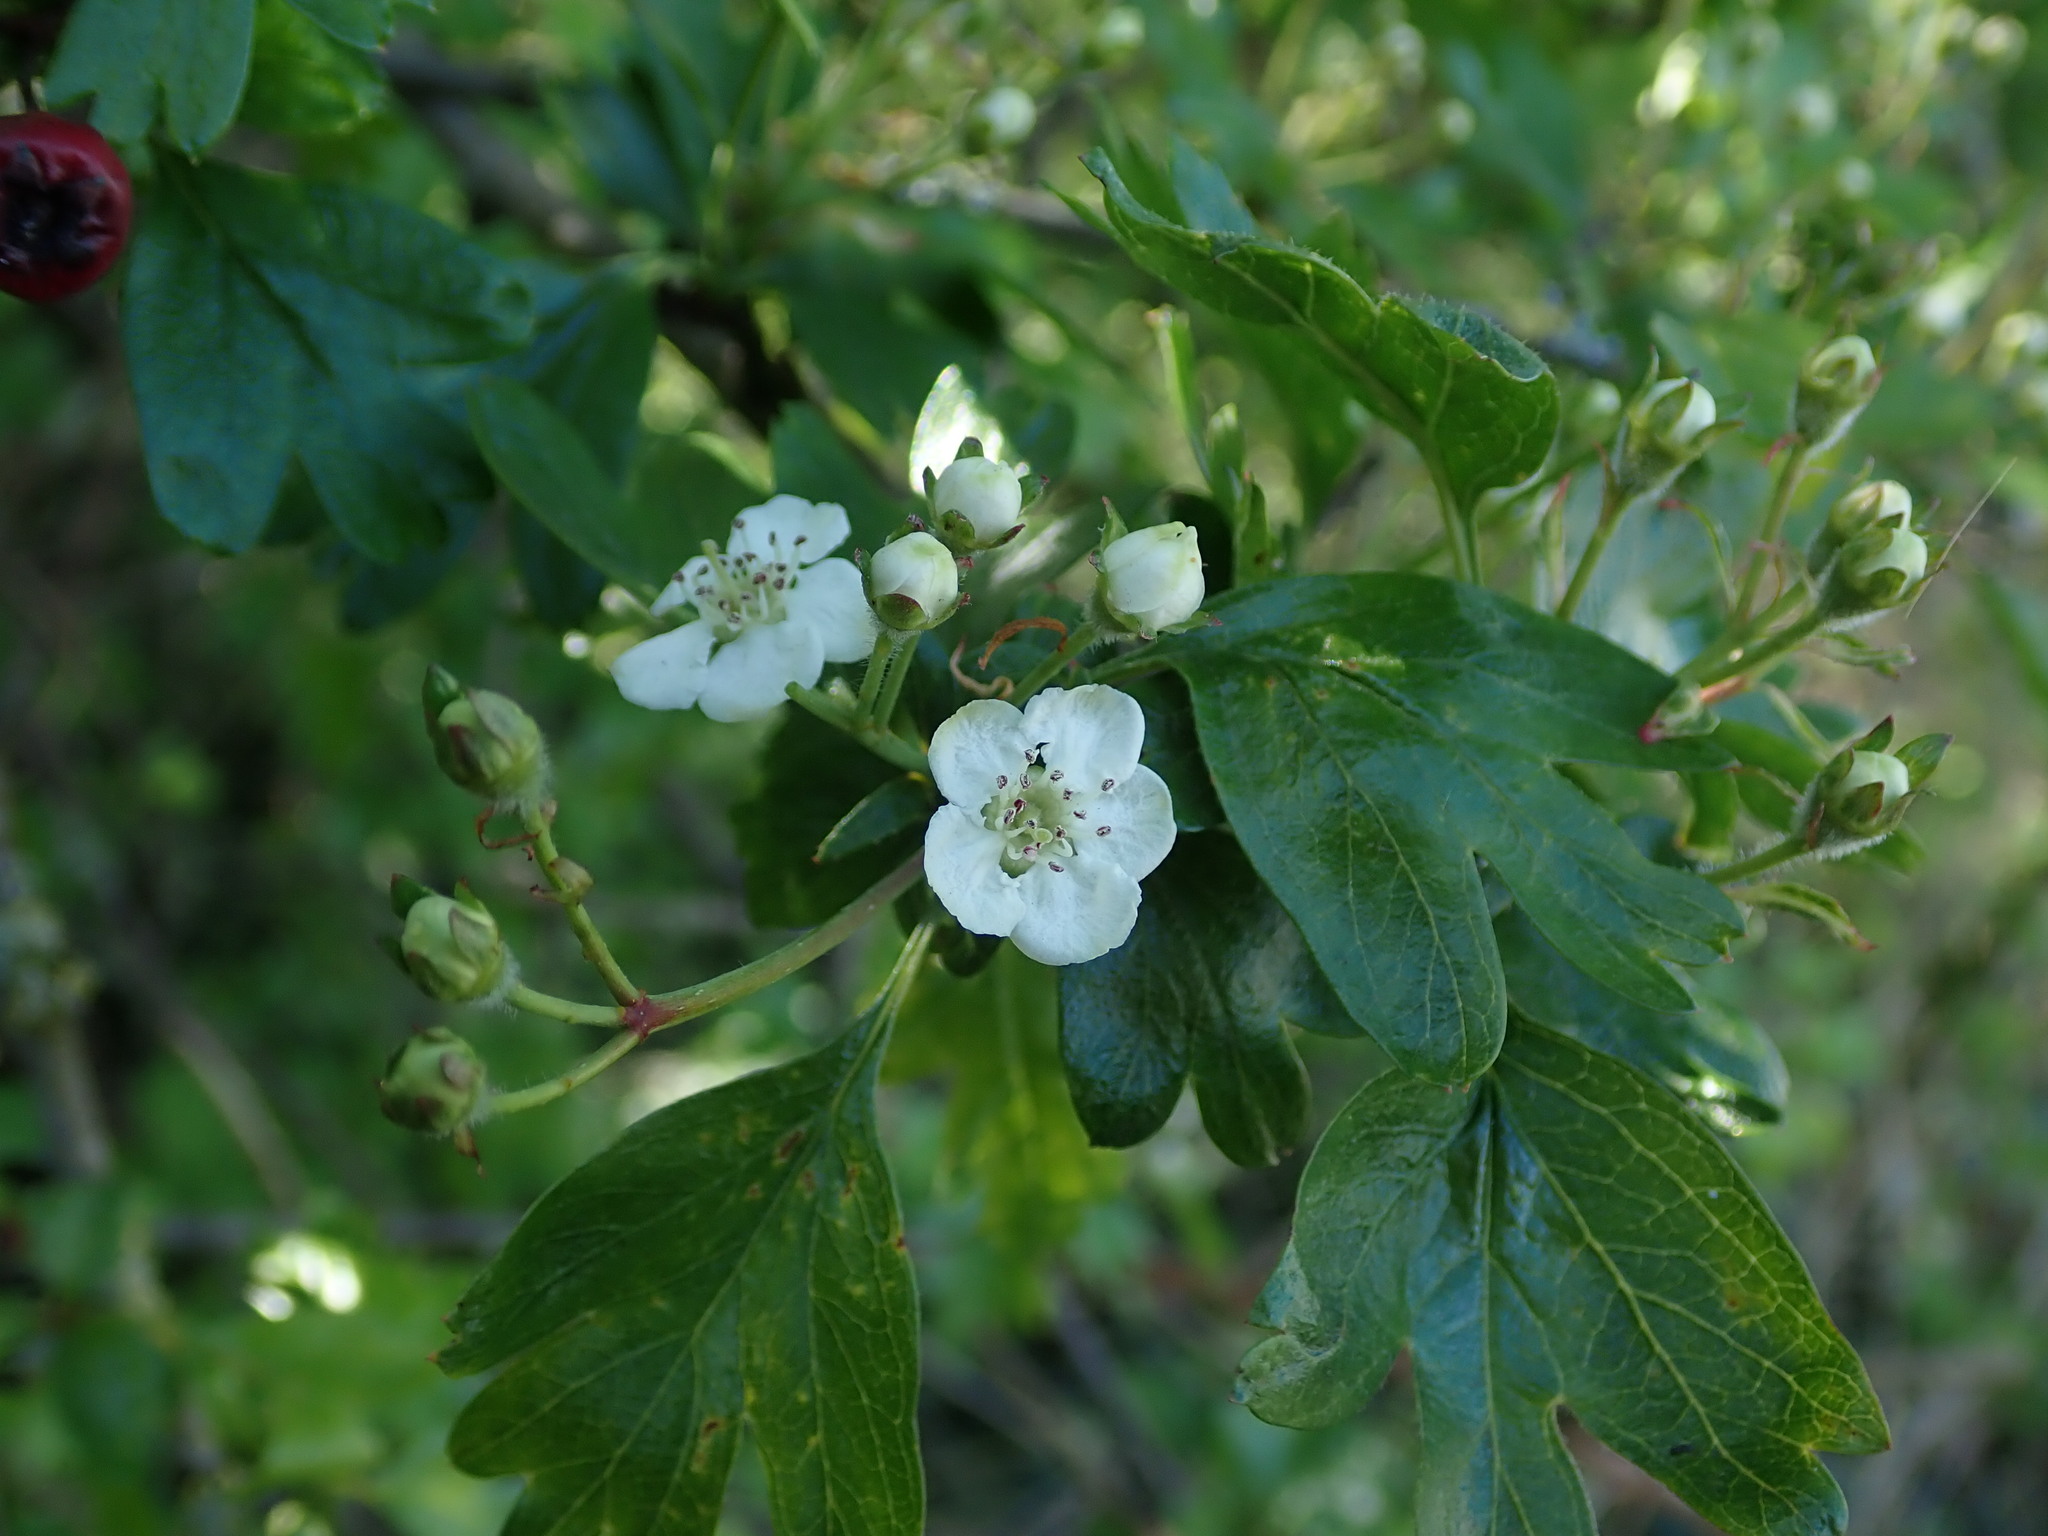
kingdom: Plantae
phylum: Tracheophyta
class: Magnoliopsida
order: Rosales
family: Rosaceae
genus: Crataegus
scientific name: Crataegus monogyna
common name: Hawthorn
